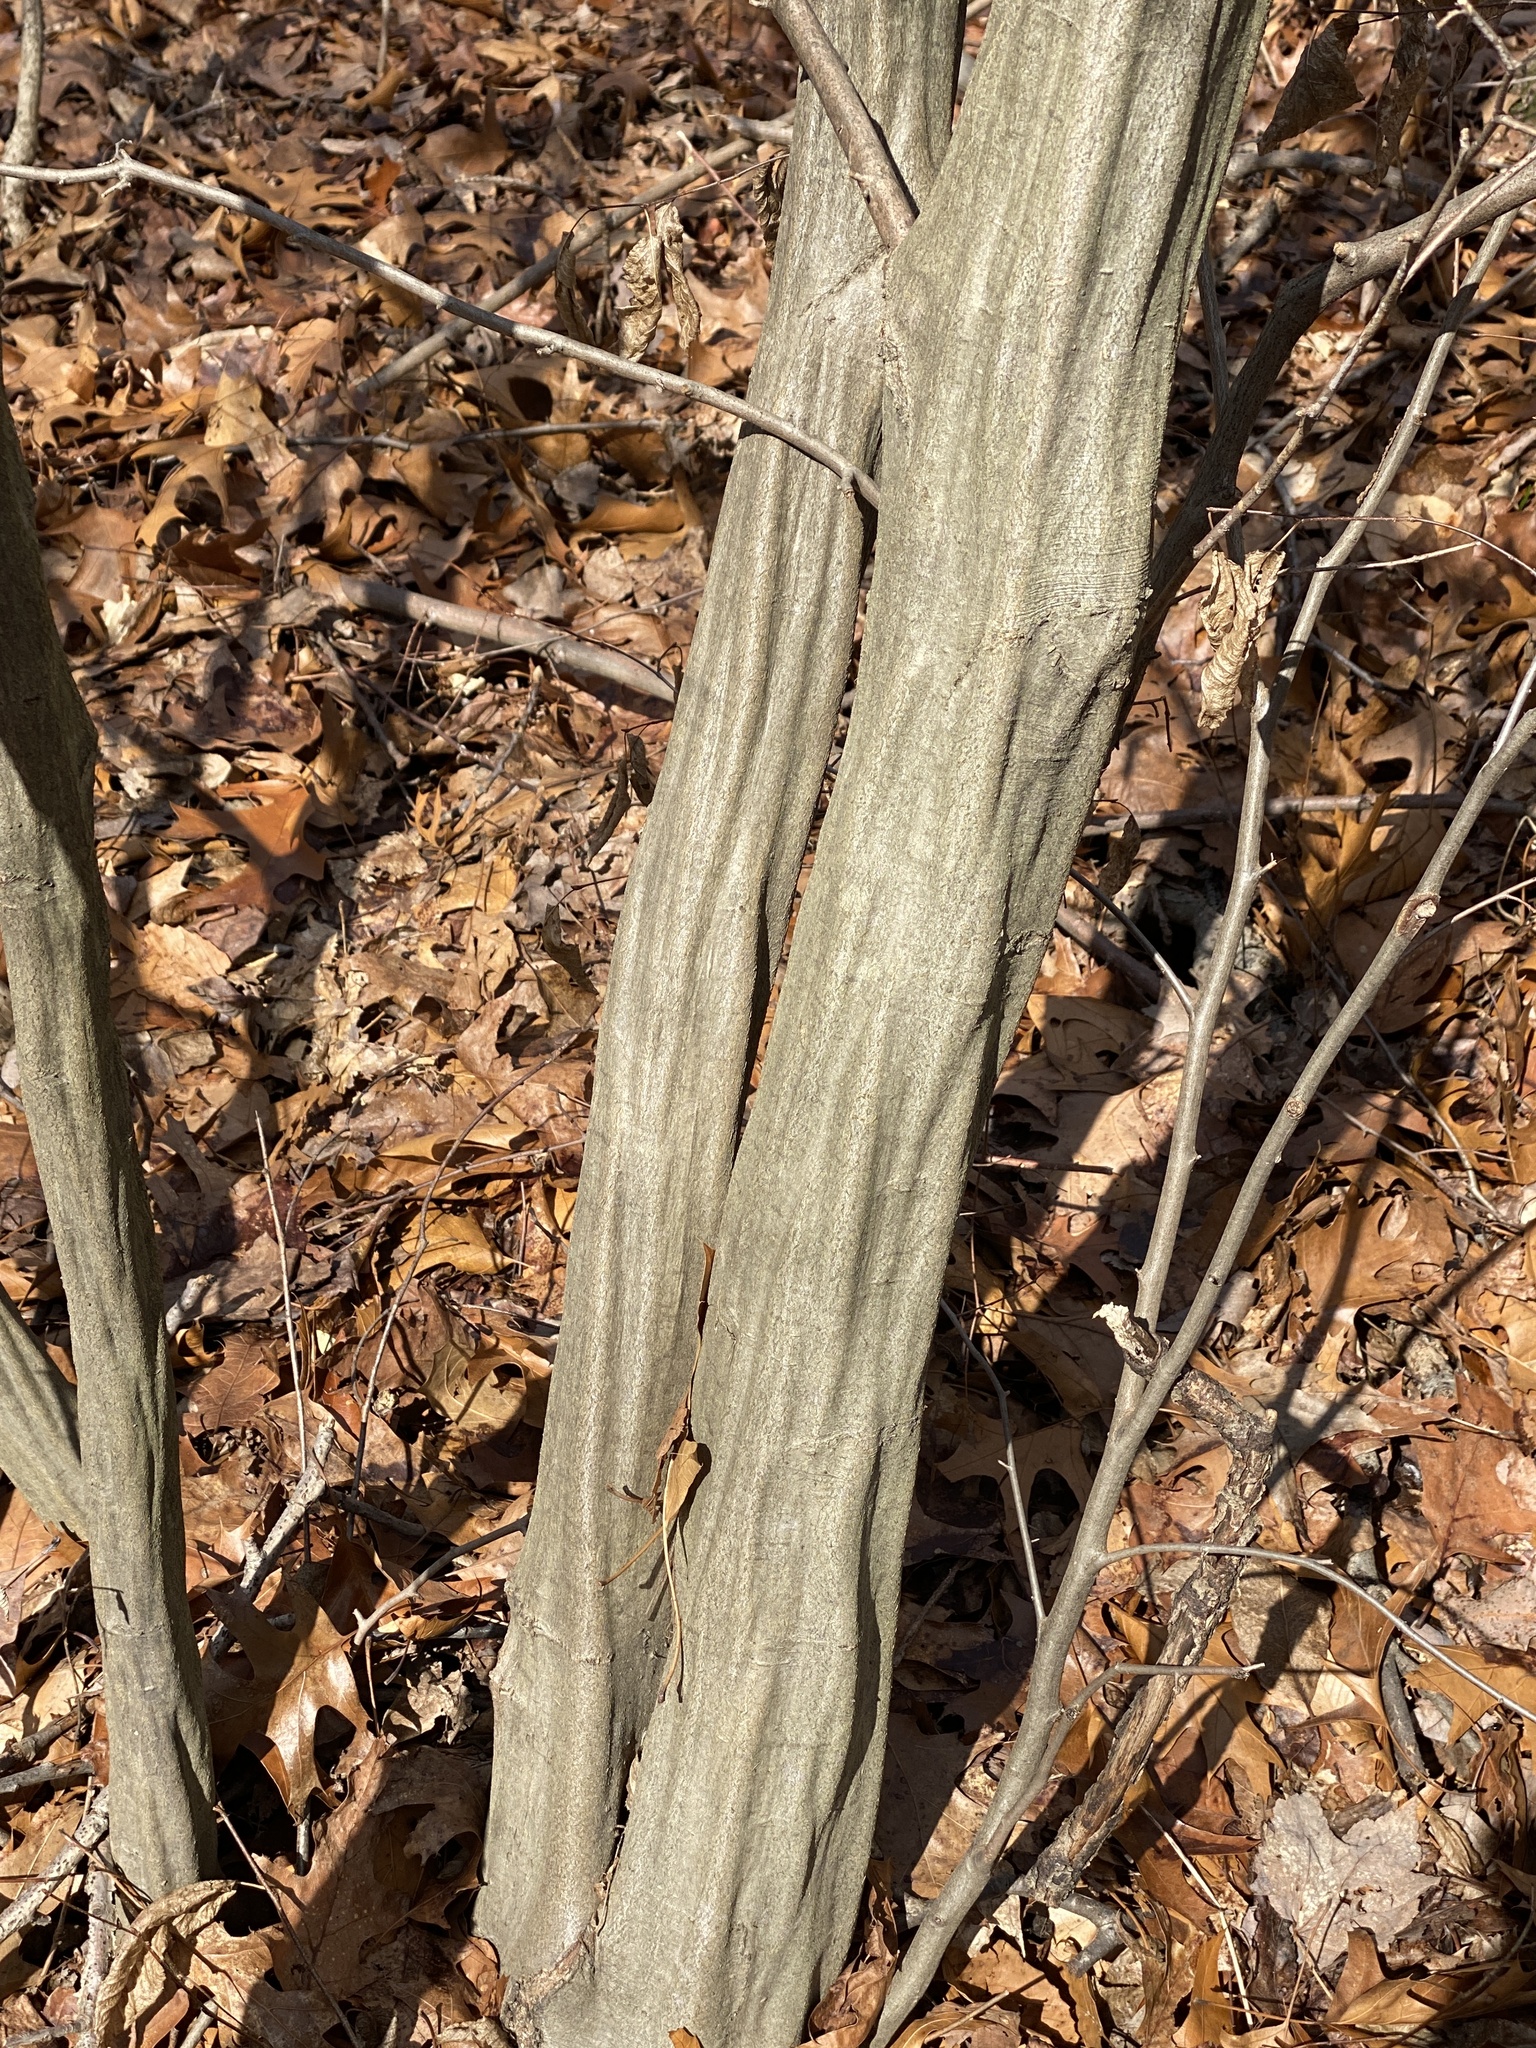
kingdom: Plantae
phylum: Tracheophyta
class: Magnoliopsida
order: Fagales
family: Betulaceae
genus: Carpinus
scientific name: Carpinus caroliniana
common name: American hornbeam
